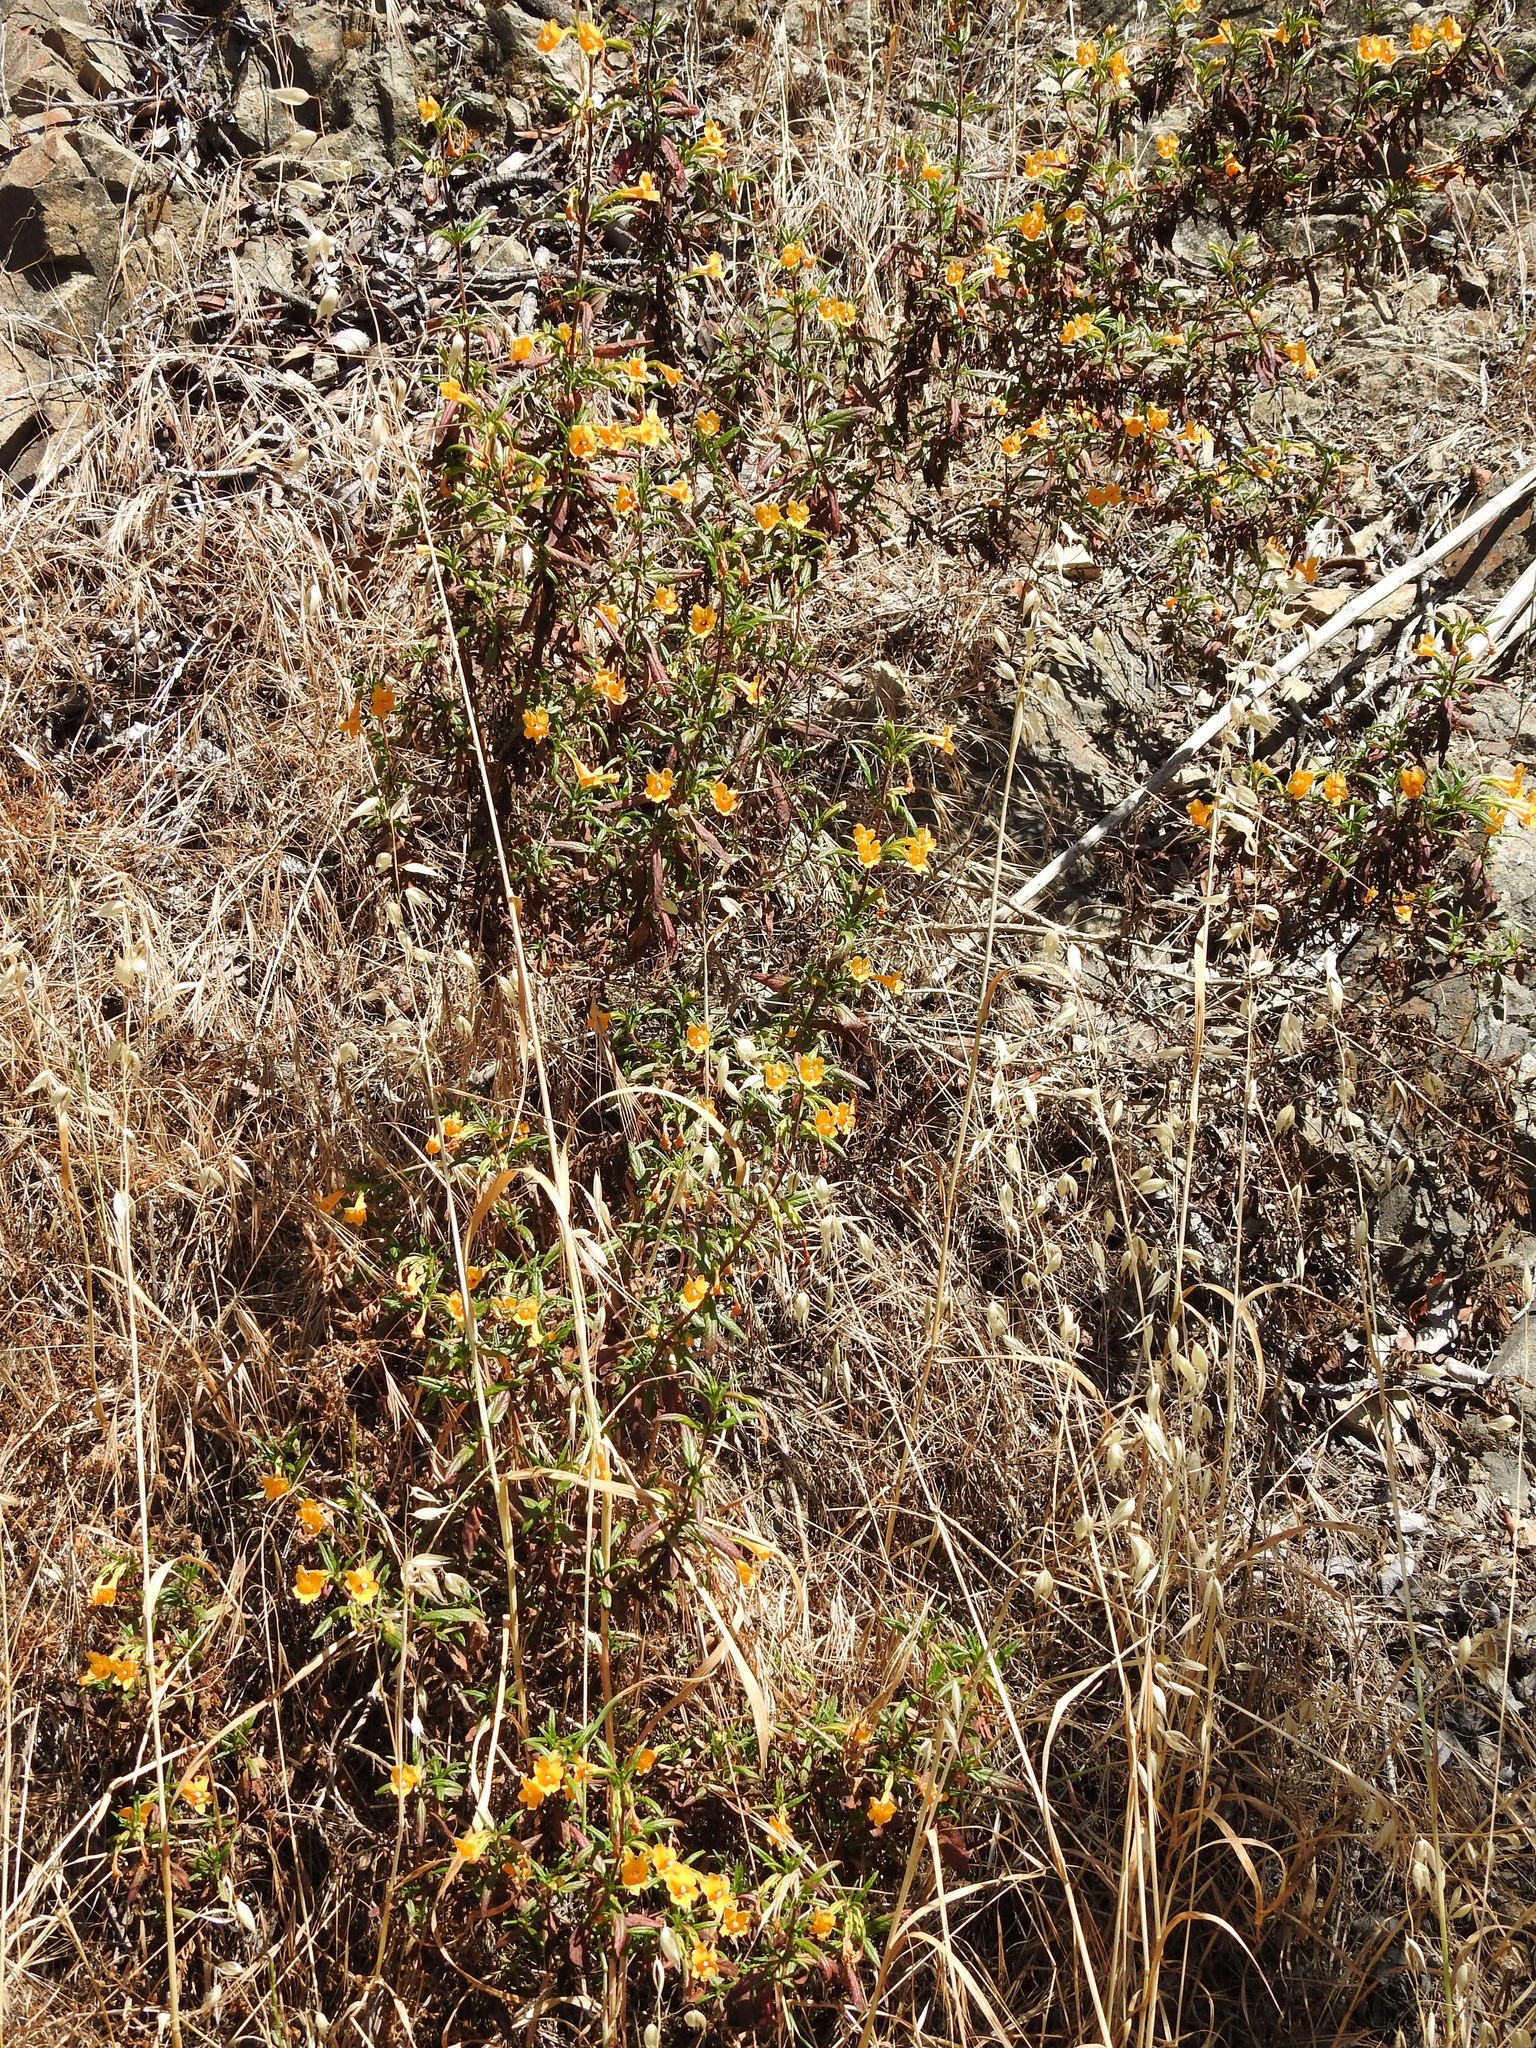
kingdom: Plantae
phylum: Tracheophyta
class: Magnoliopsida
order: Lamiales
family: Phrymaceae
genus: Diplacus
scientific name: Diplacus aurantiacus
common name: Bush monkey-flower
